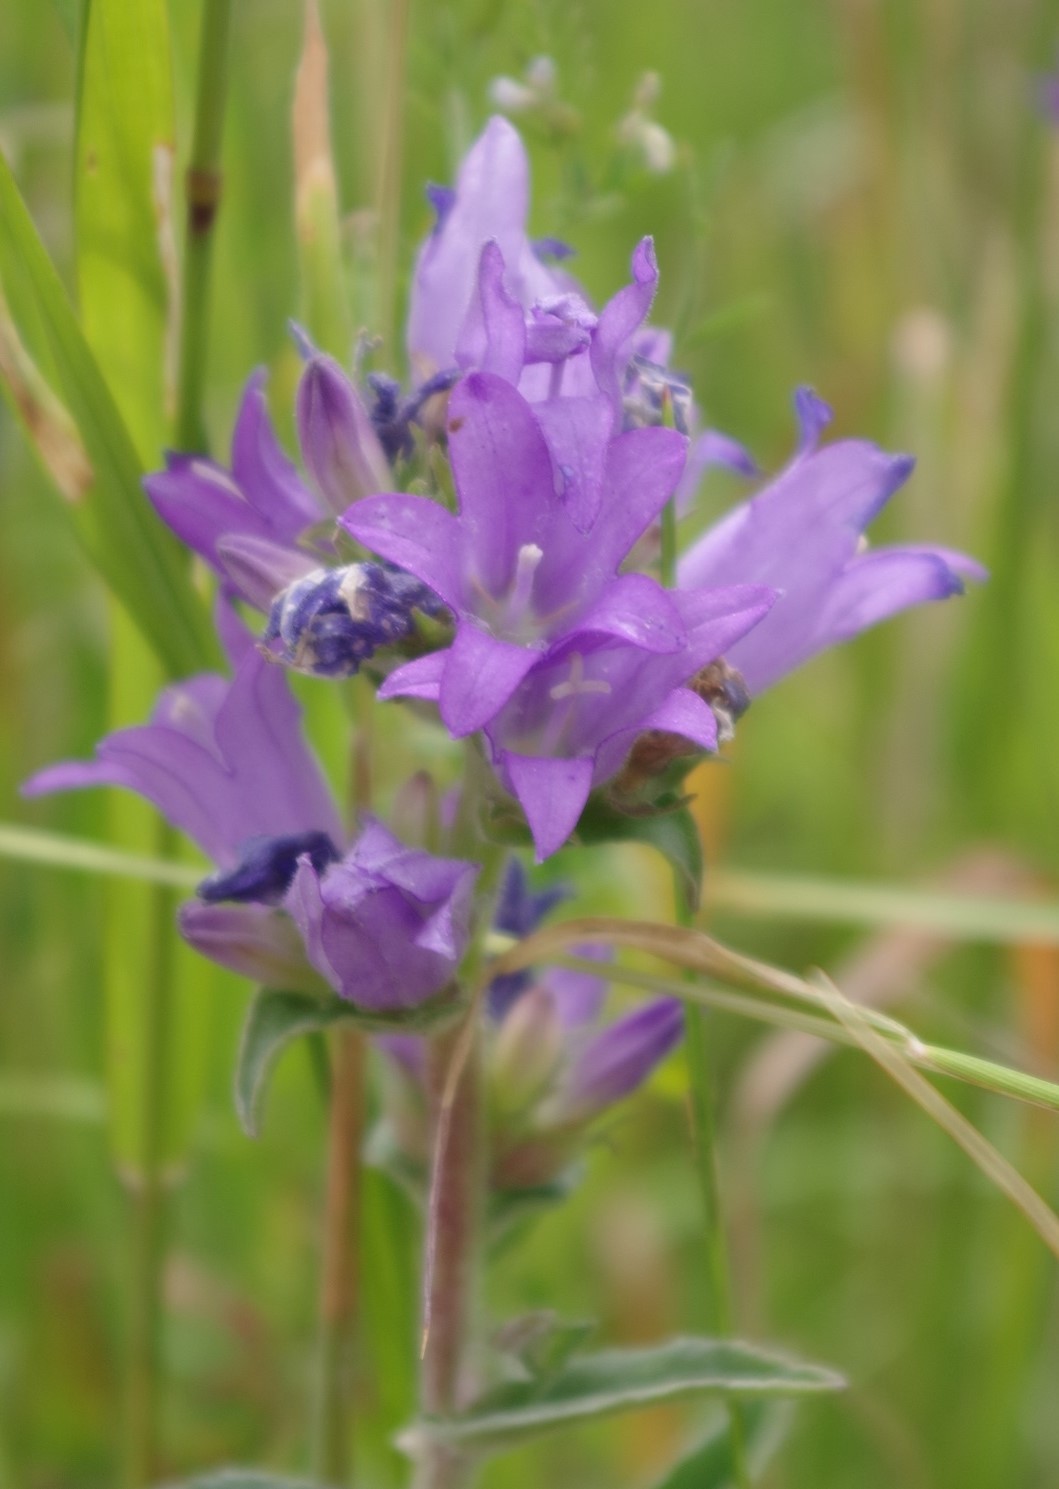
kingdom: Plantae
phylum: Tracheophyta
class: Magnoliopsida
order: Asterales
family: Campanulaceae
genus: Campanula
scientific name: Campanula glomerata
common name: Clustered bellflower
